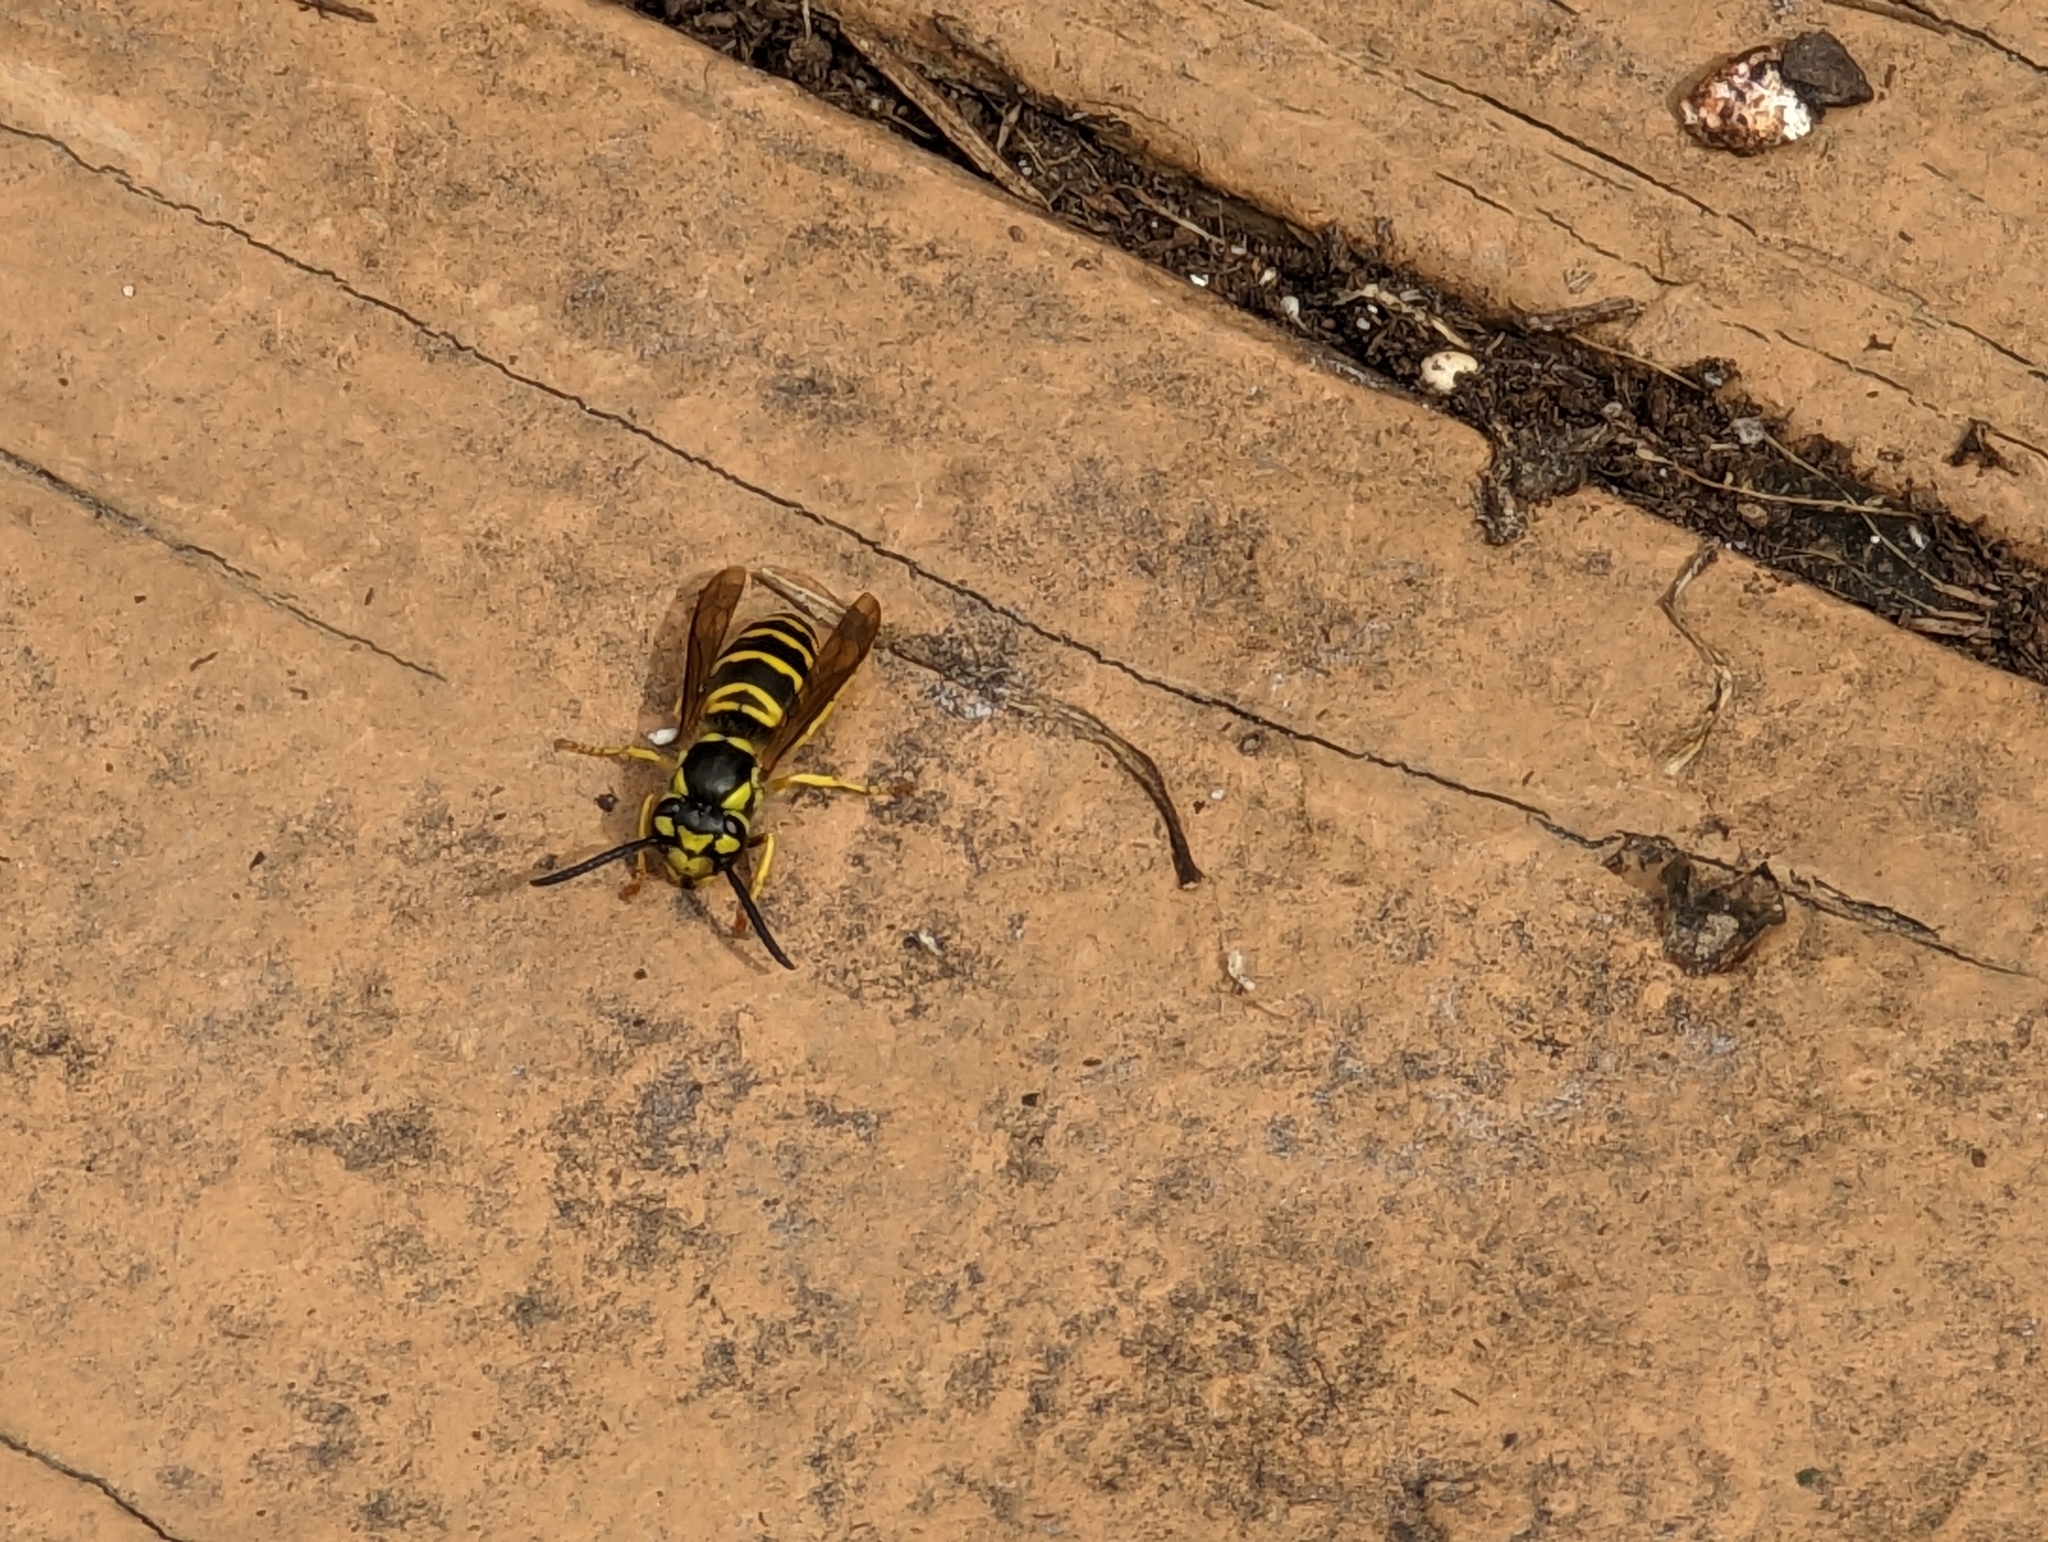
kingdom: Animalia
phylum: Arthropoda
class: Insecta
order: Hymenoptera
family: Vespidae
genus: Vespula
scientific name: Vespula maculifrons
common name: Eastern yellowjacket
